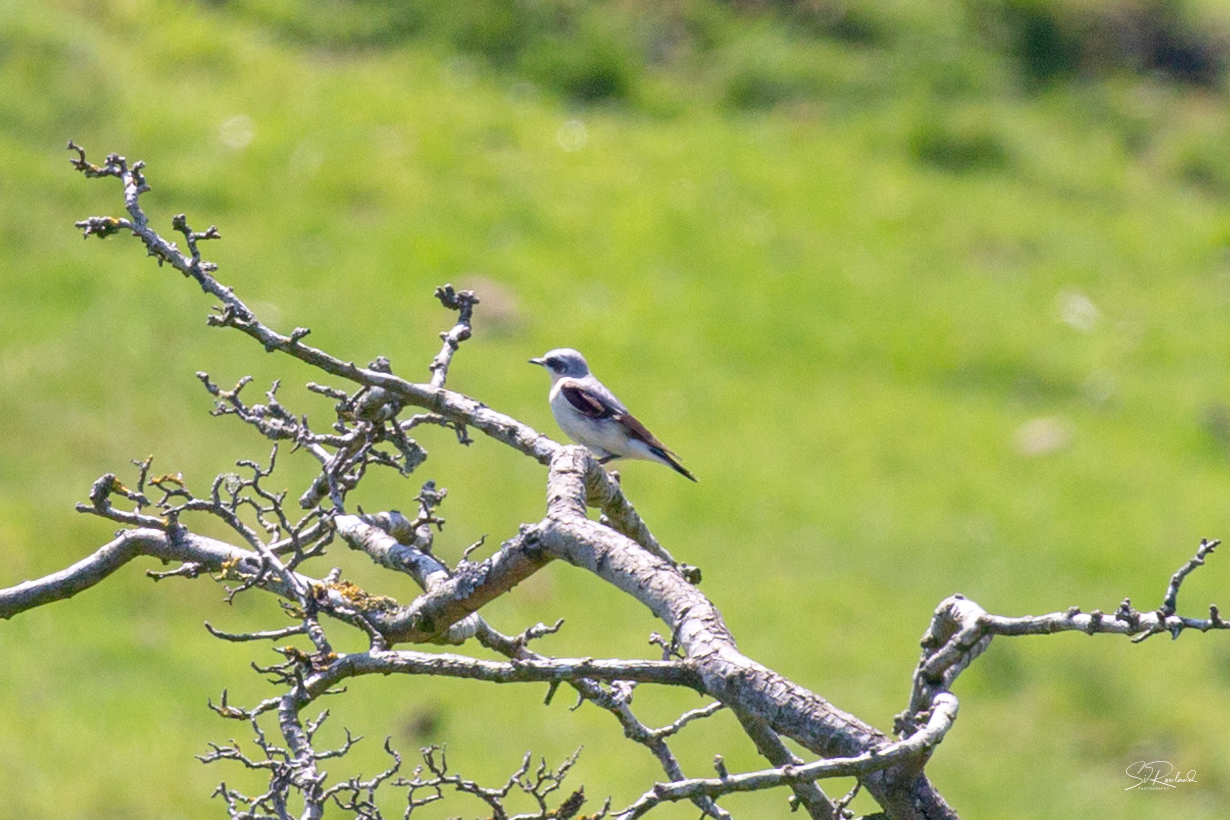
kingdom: Animalia
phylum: Chordata
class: Aves
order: Passeriformes
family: Muscicapidae
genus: Oenanthe
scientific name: Oenanthe oenanthe
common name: Northern wheatear
